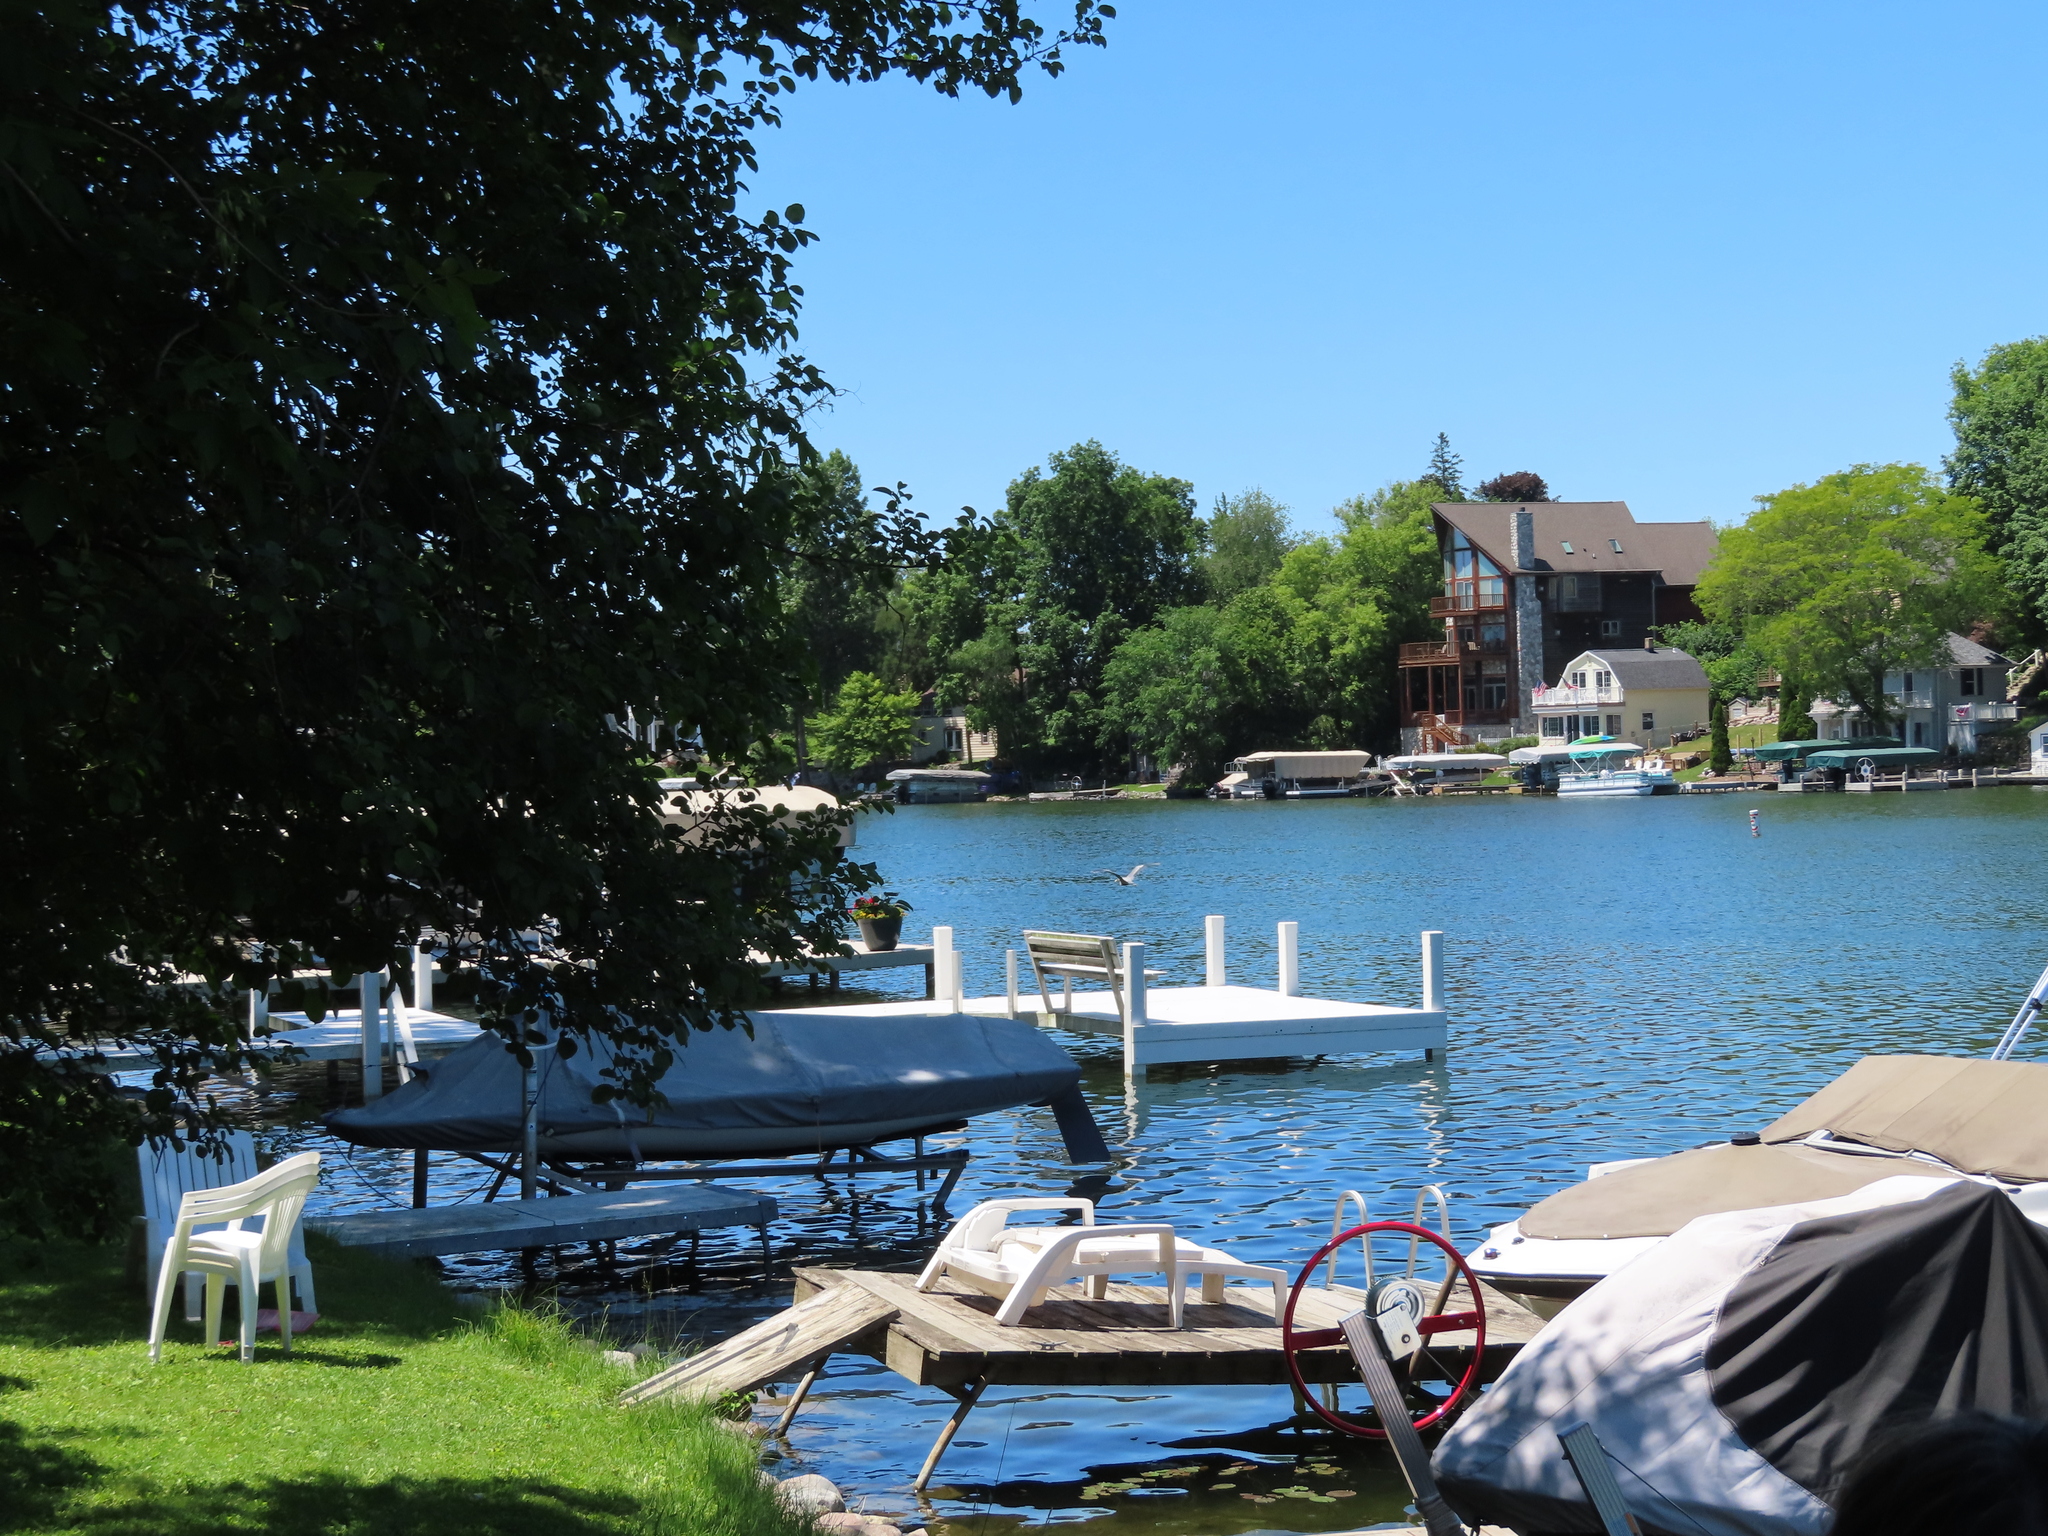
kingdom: Animalia
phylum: Chordata
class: Aves
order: Pelecaniformes
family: Ardeidae
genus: Ardea
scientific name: Ardea herodias
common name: Great blue heron
